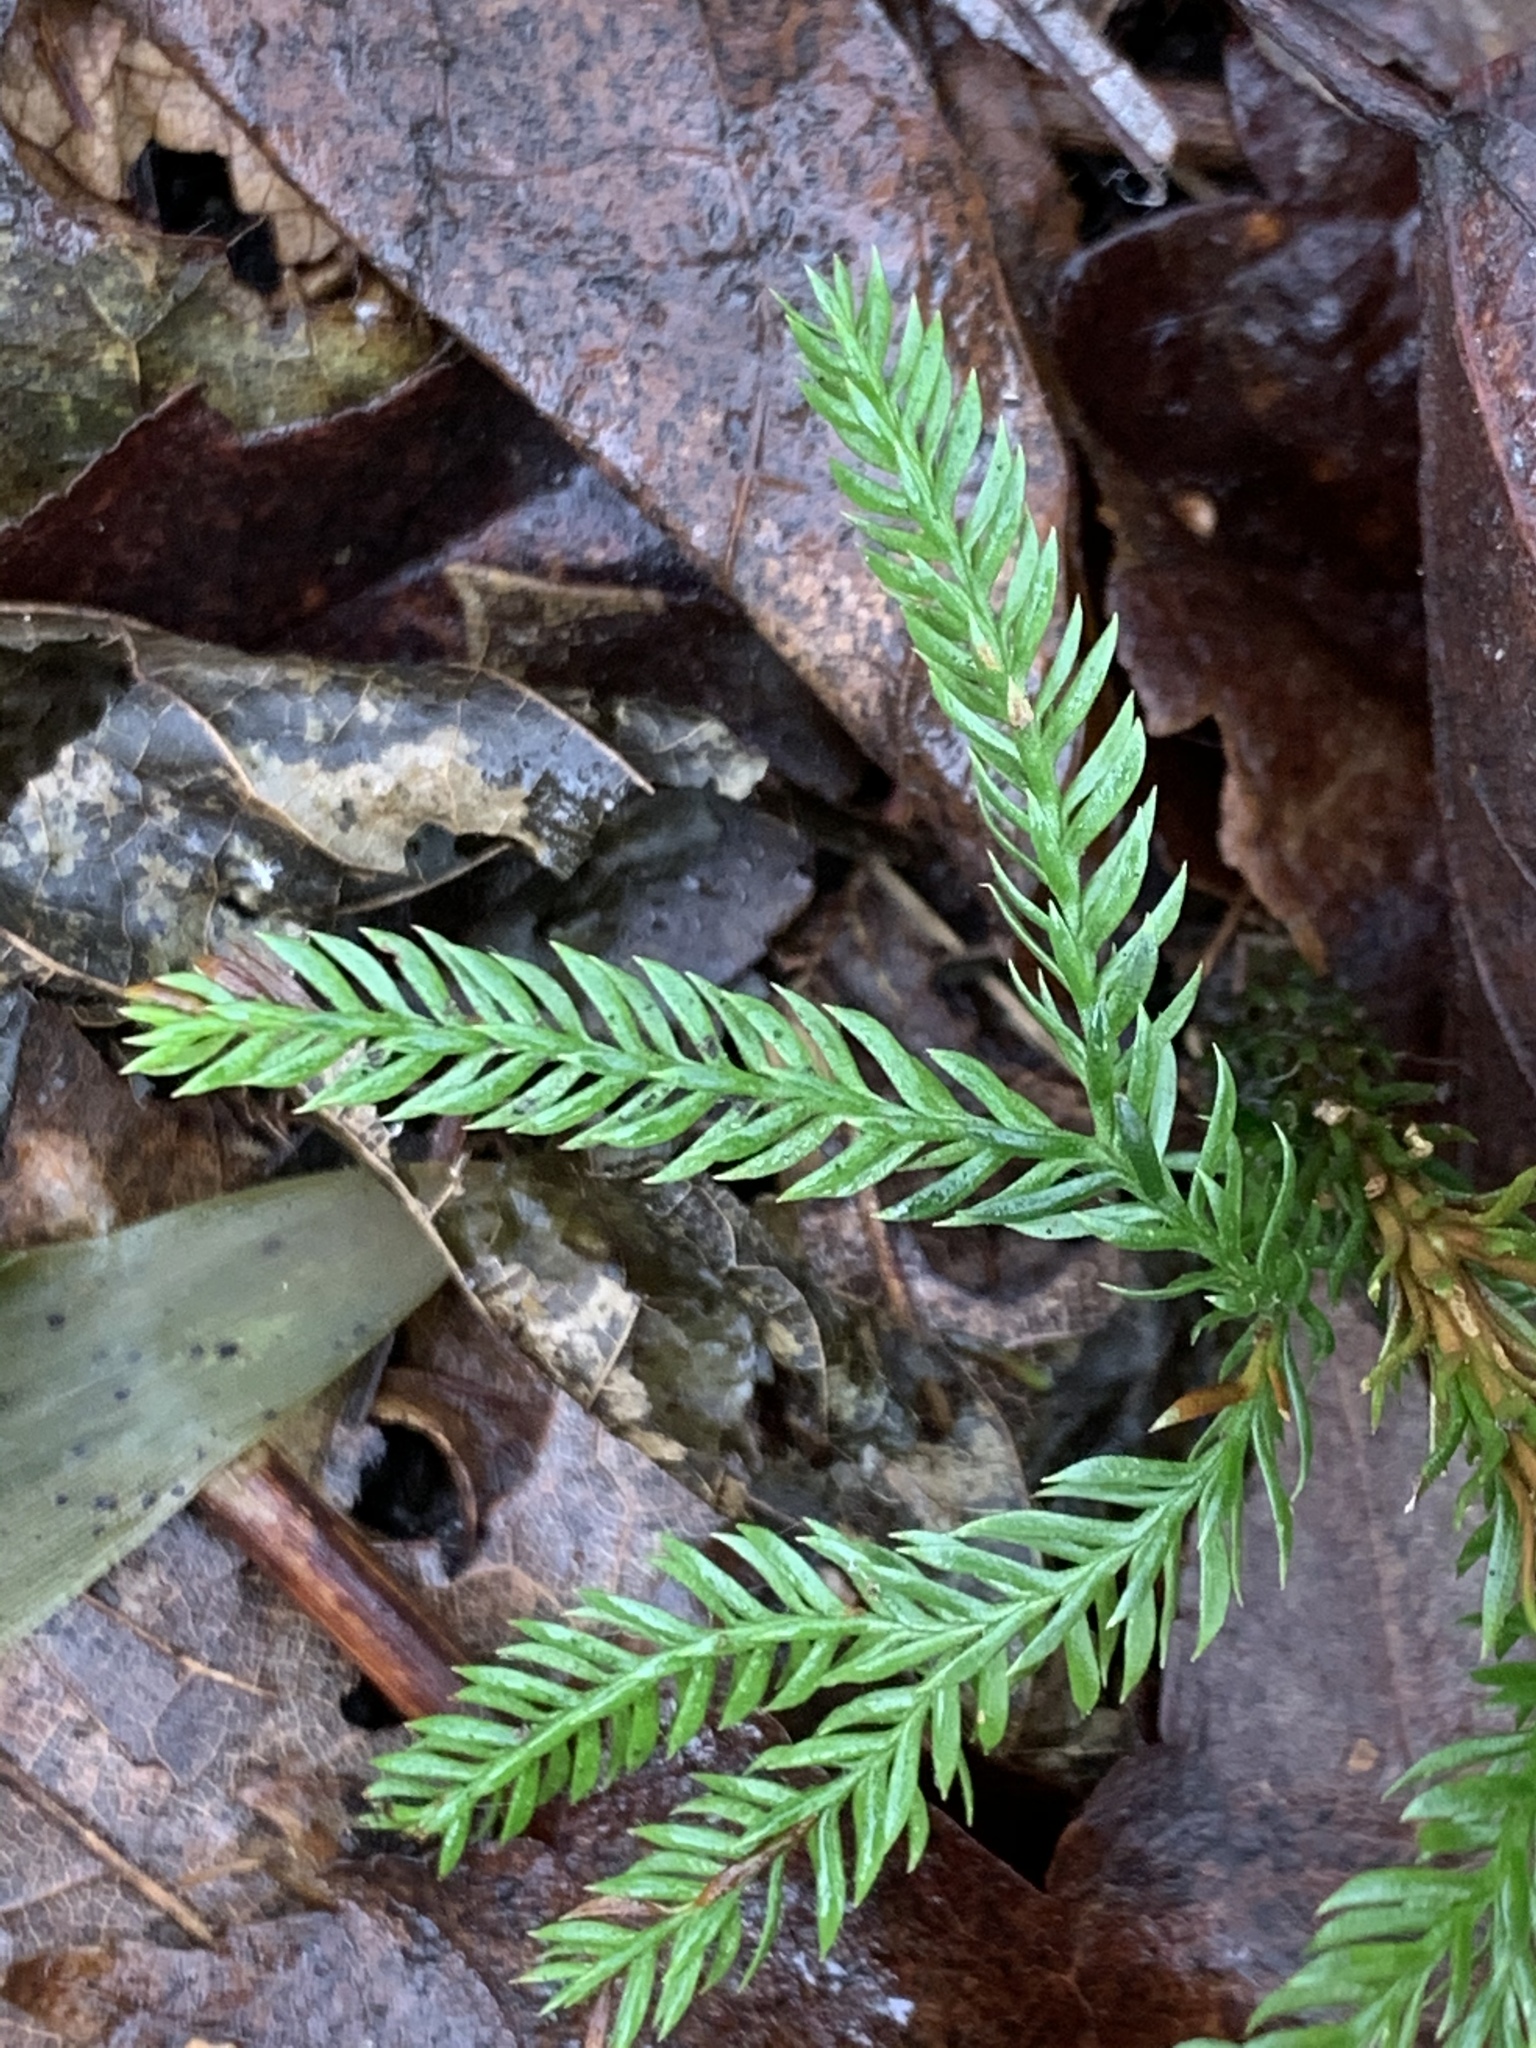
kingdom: Plantae
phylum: Tracheophyta
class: Lycopodiopsida
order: Lycopodiales
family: Lycopodiaceae
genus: Dendrolycopodium
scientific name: Dendrolycopodium dendroideum
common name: Northern tree-clubmoss
